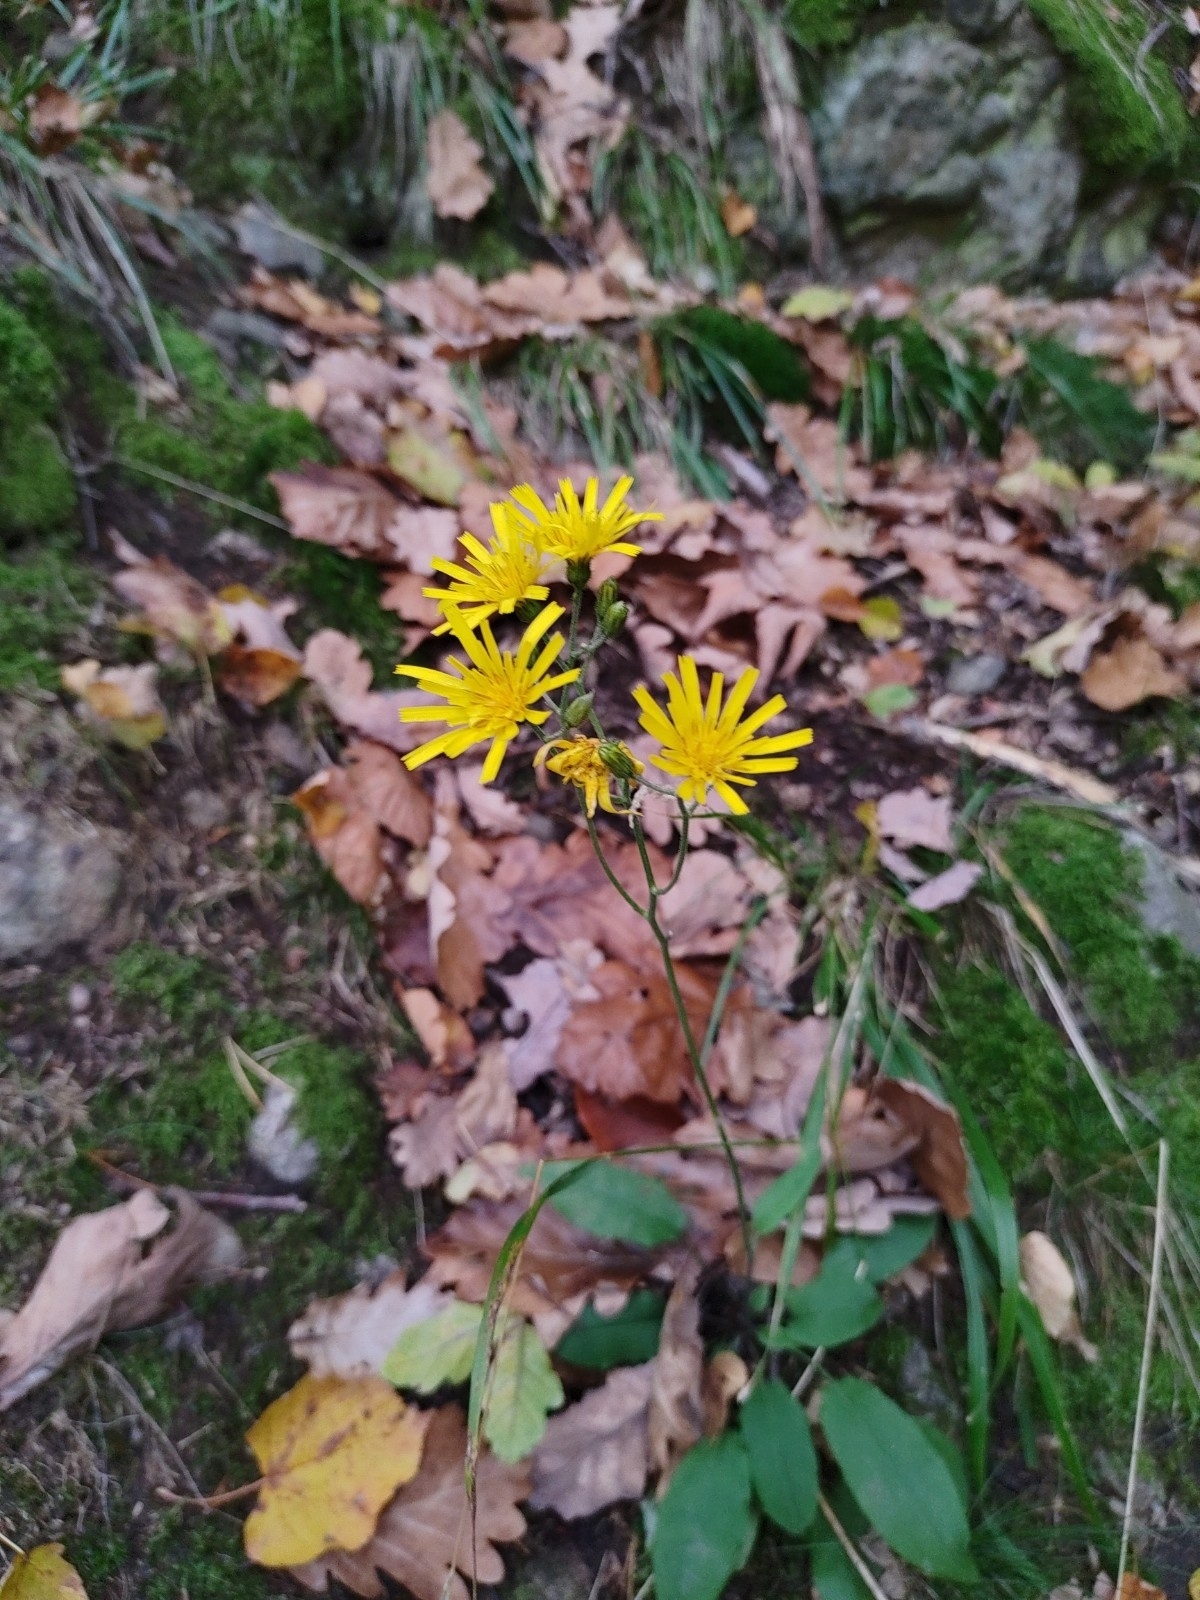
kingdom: Plantae
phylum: Tracheophyta
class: Magnoliopsida
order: Asterales
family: Asteraceae
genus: Hieracium
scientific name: Hieracium murorum
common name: Wall hawkweed
